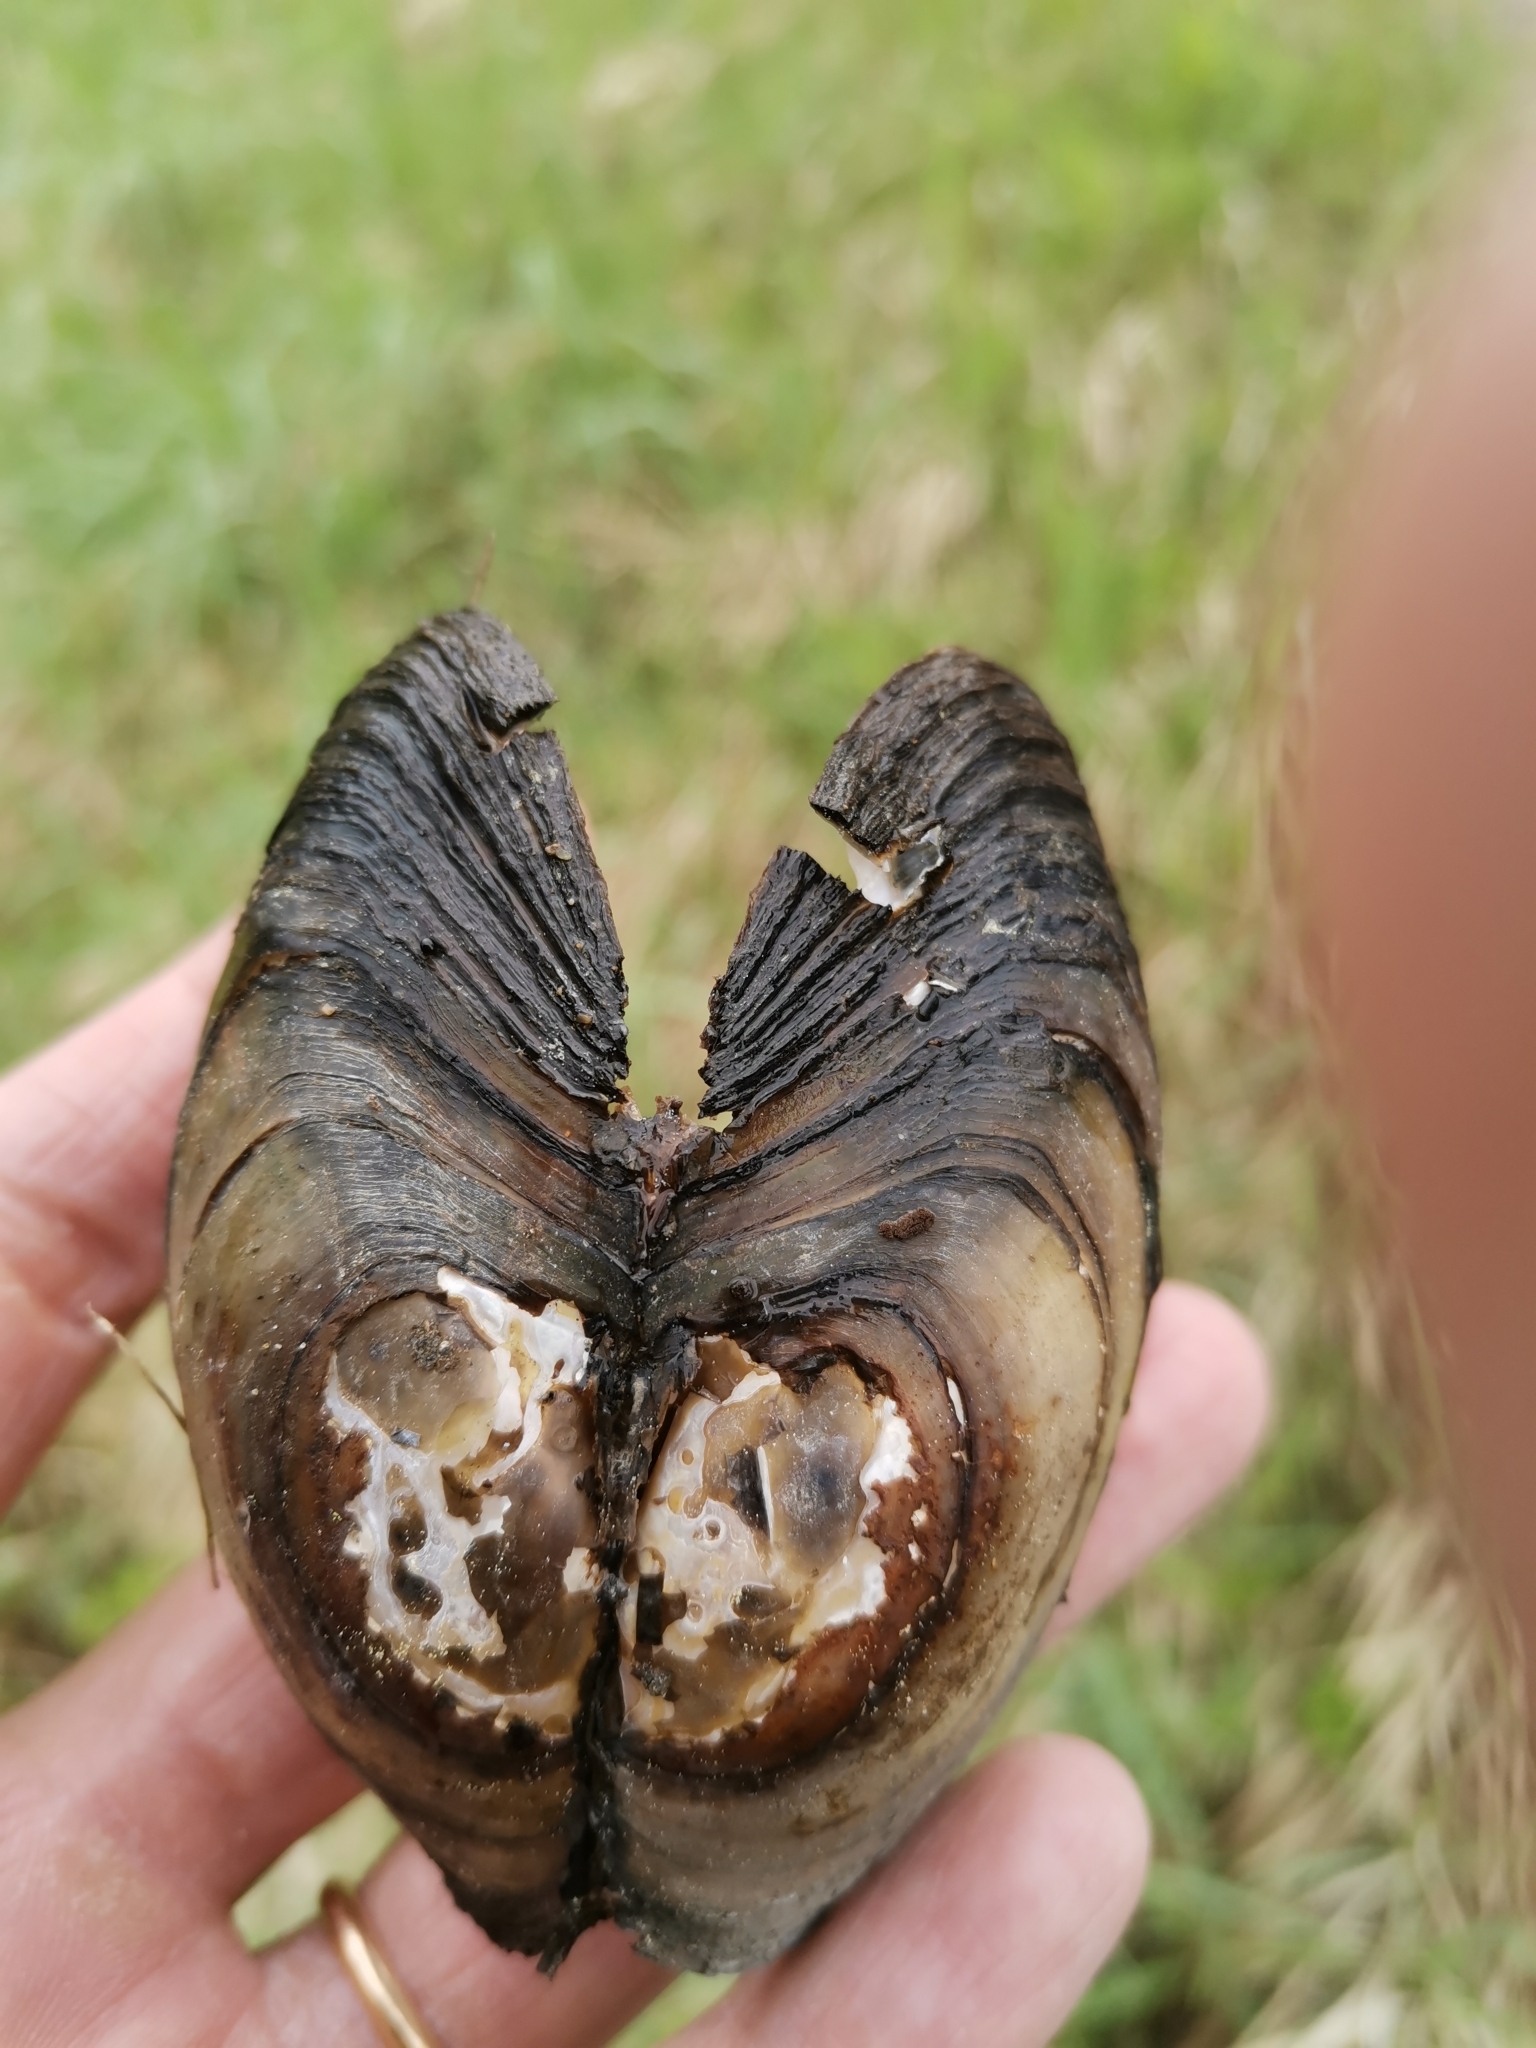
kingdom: Animalia
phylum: Mollusca
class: Bivalvia
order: Unionida
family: Unionidae
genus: Anodonta
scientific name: Anodonta anatina
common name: Duck mussel
